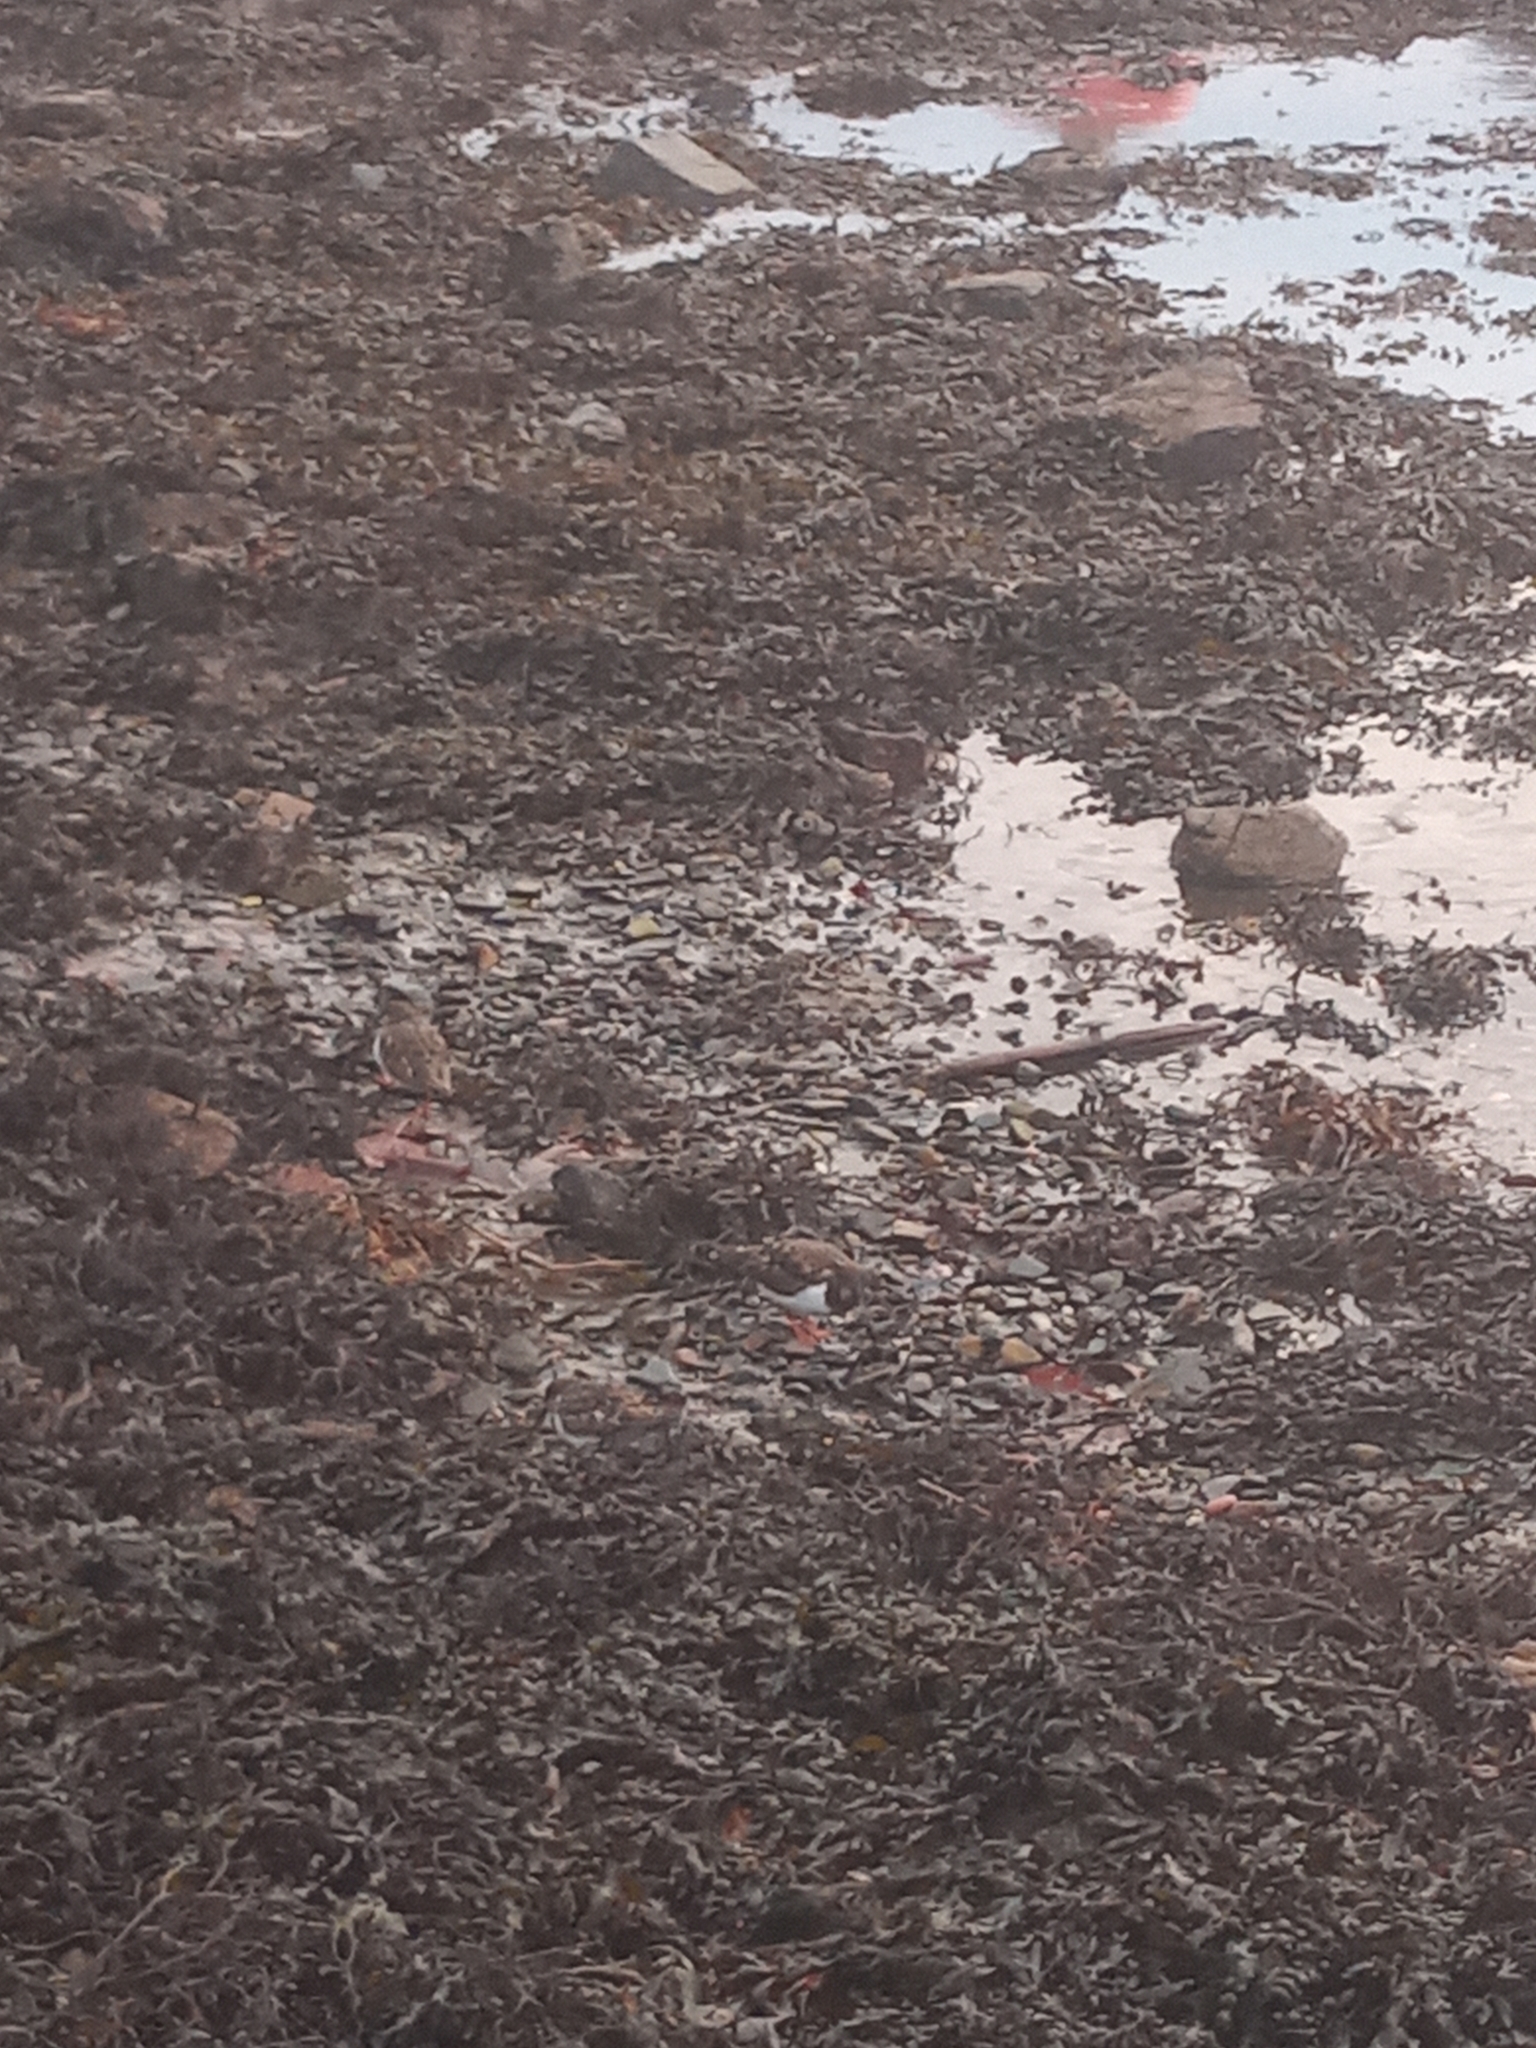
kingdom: Animalia
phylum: Chordata
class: Aves
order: Charadriiformes
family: Scolopacidae
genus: Arenaria
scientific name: Arenaria interpres
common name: Ruddy turnstone
